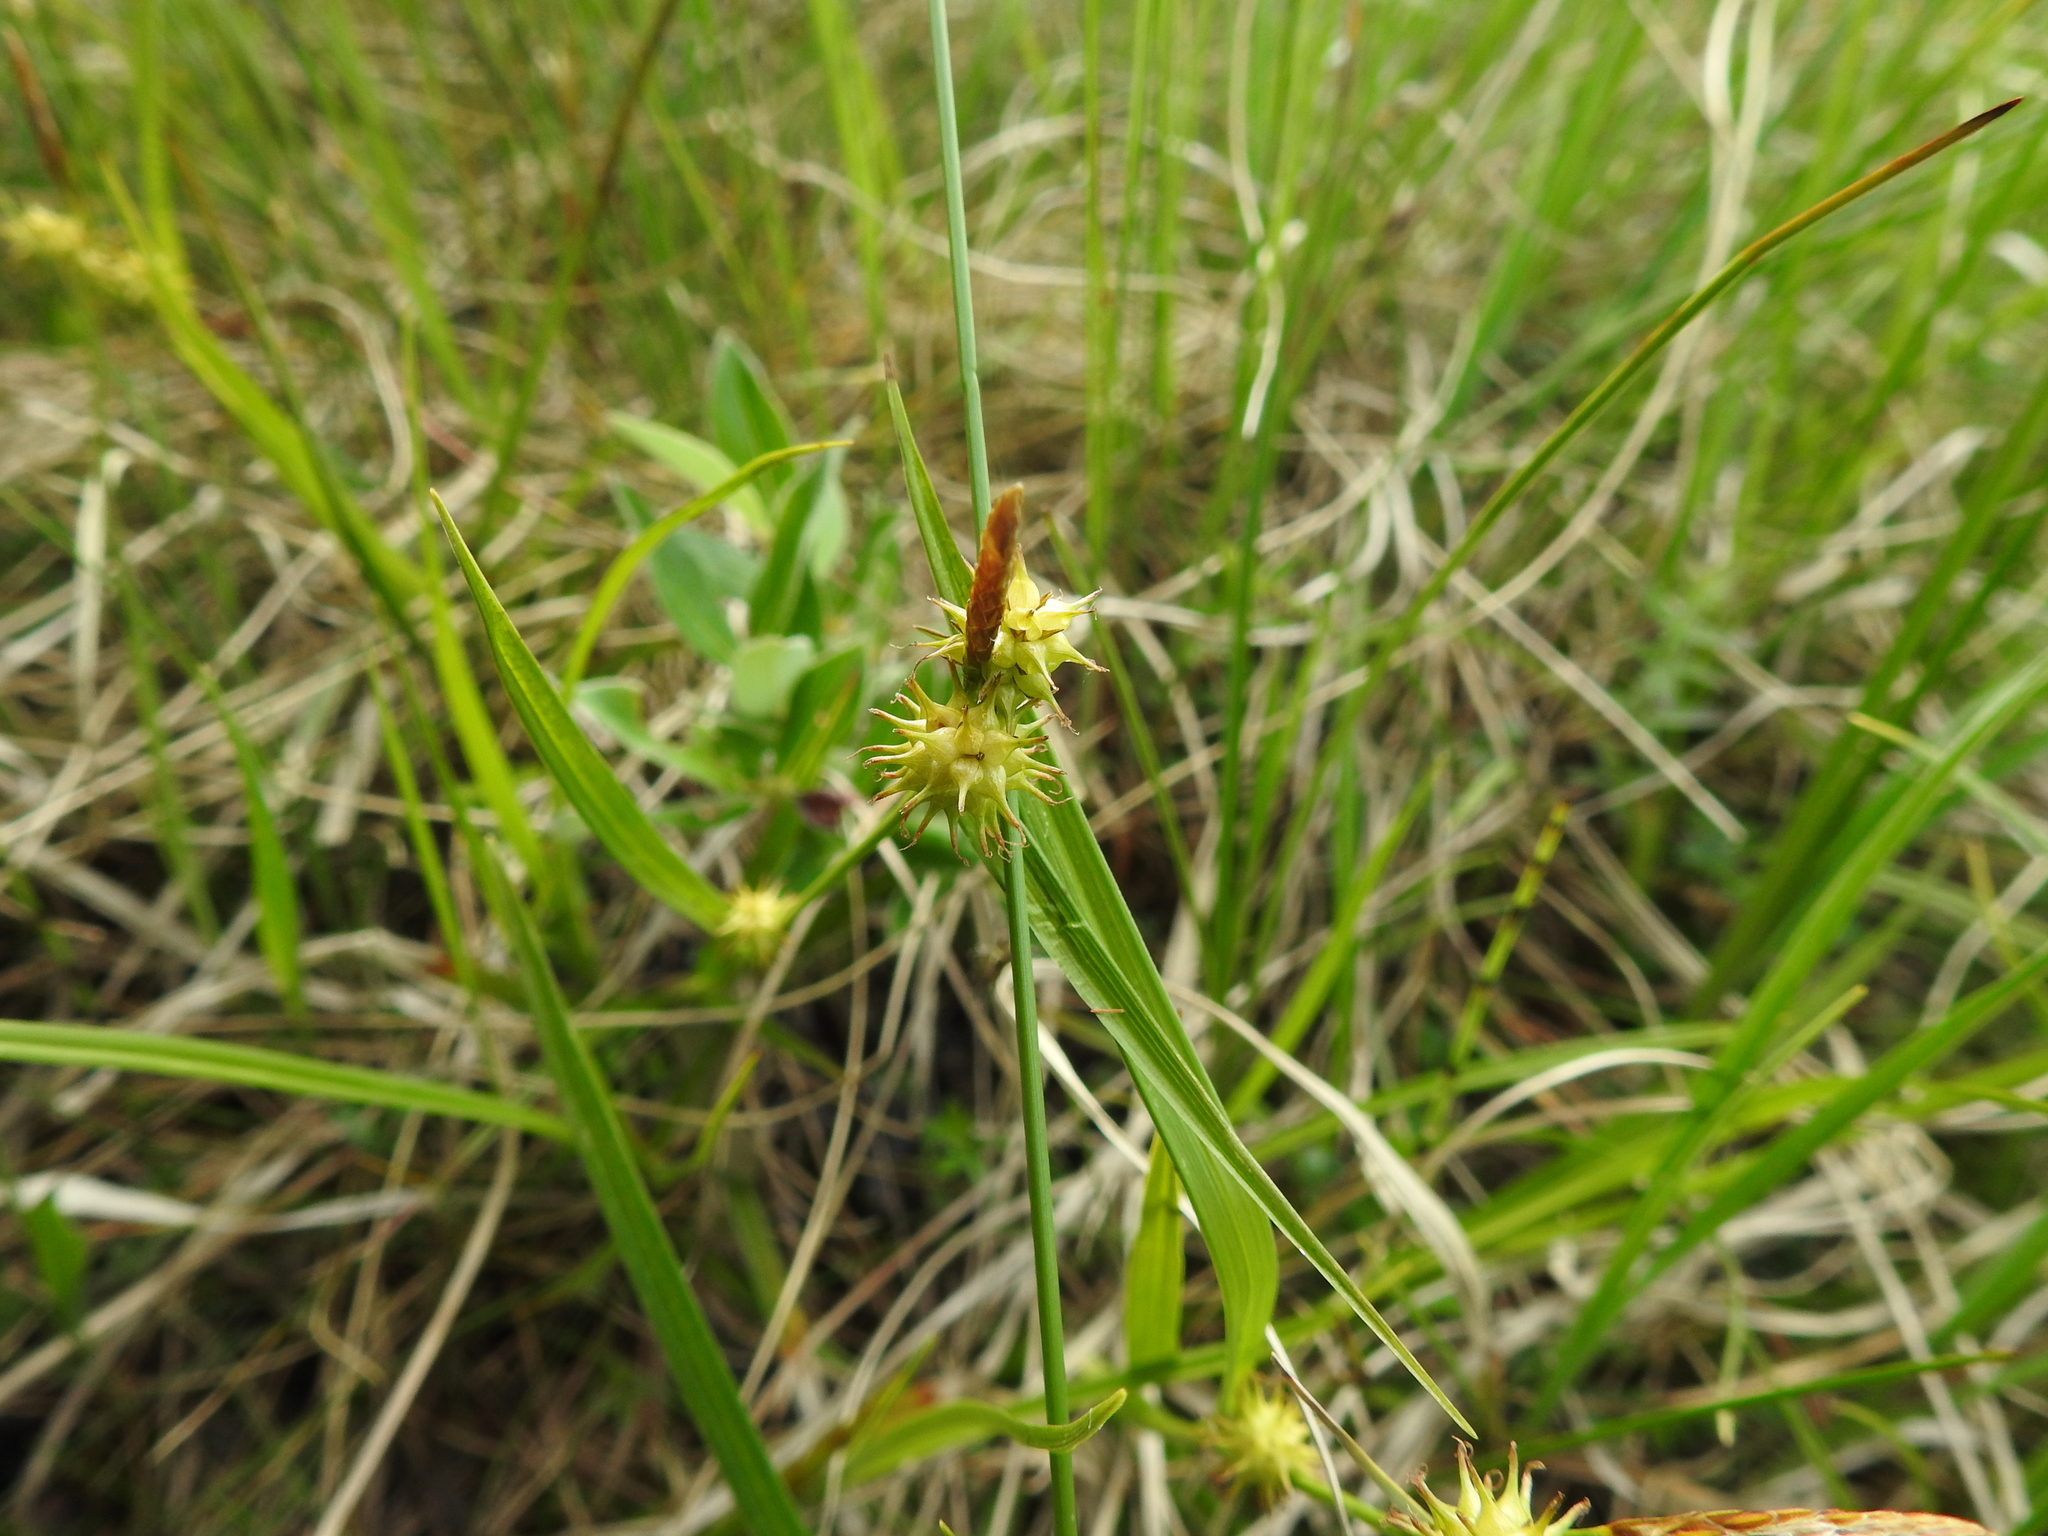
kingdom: Plantae
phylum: Tracheophyta
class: Liliopsida
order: Poales
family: Cyperaceae
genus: Carex
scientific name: Carex flava
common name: Large yellow-sedge
